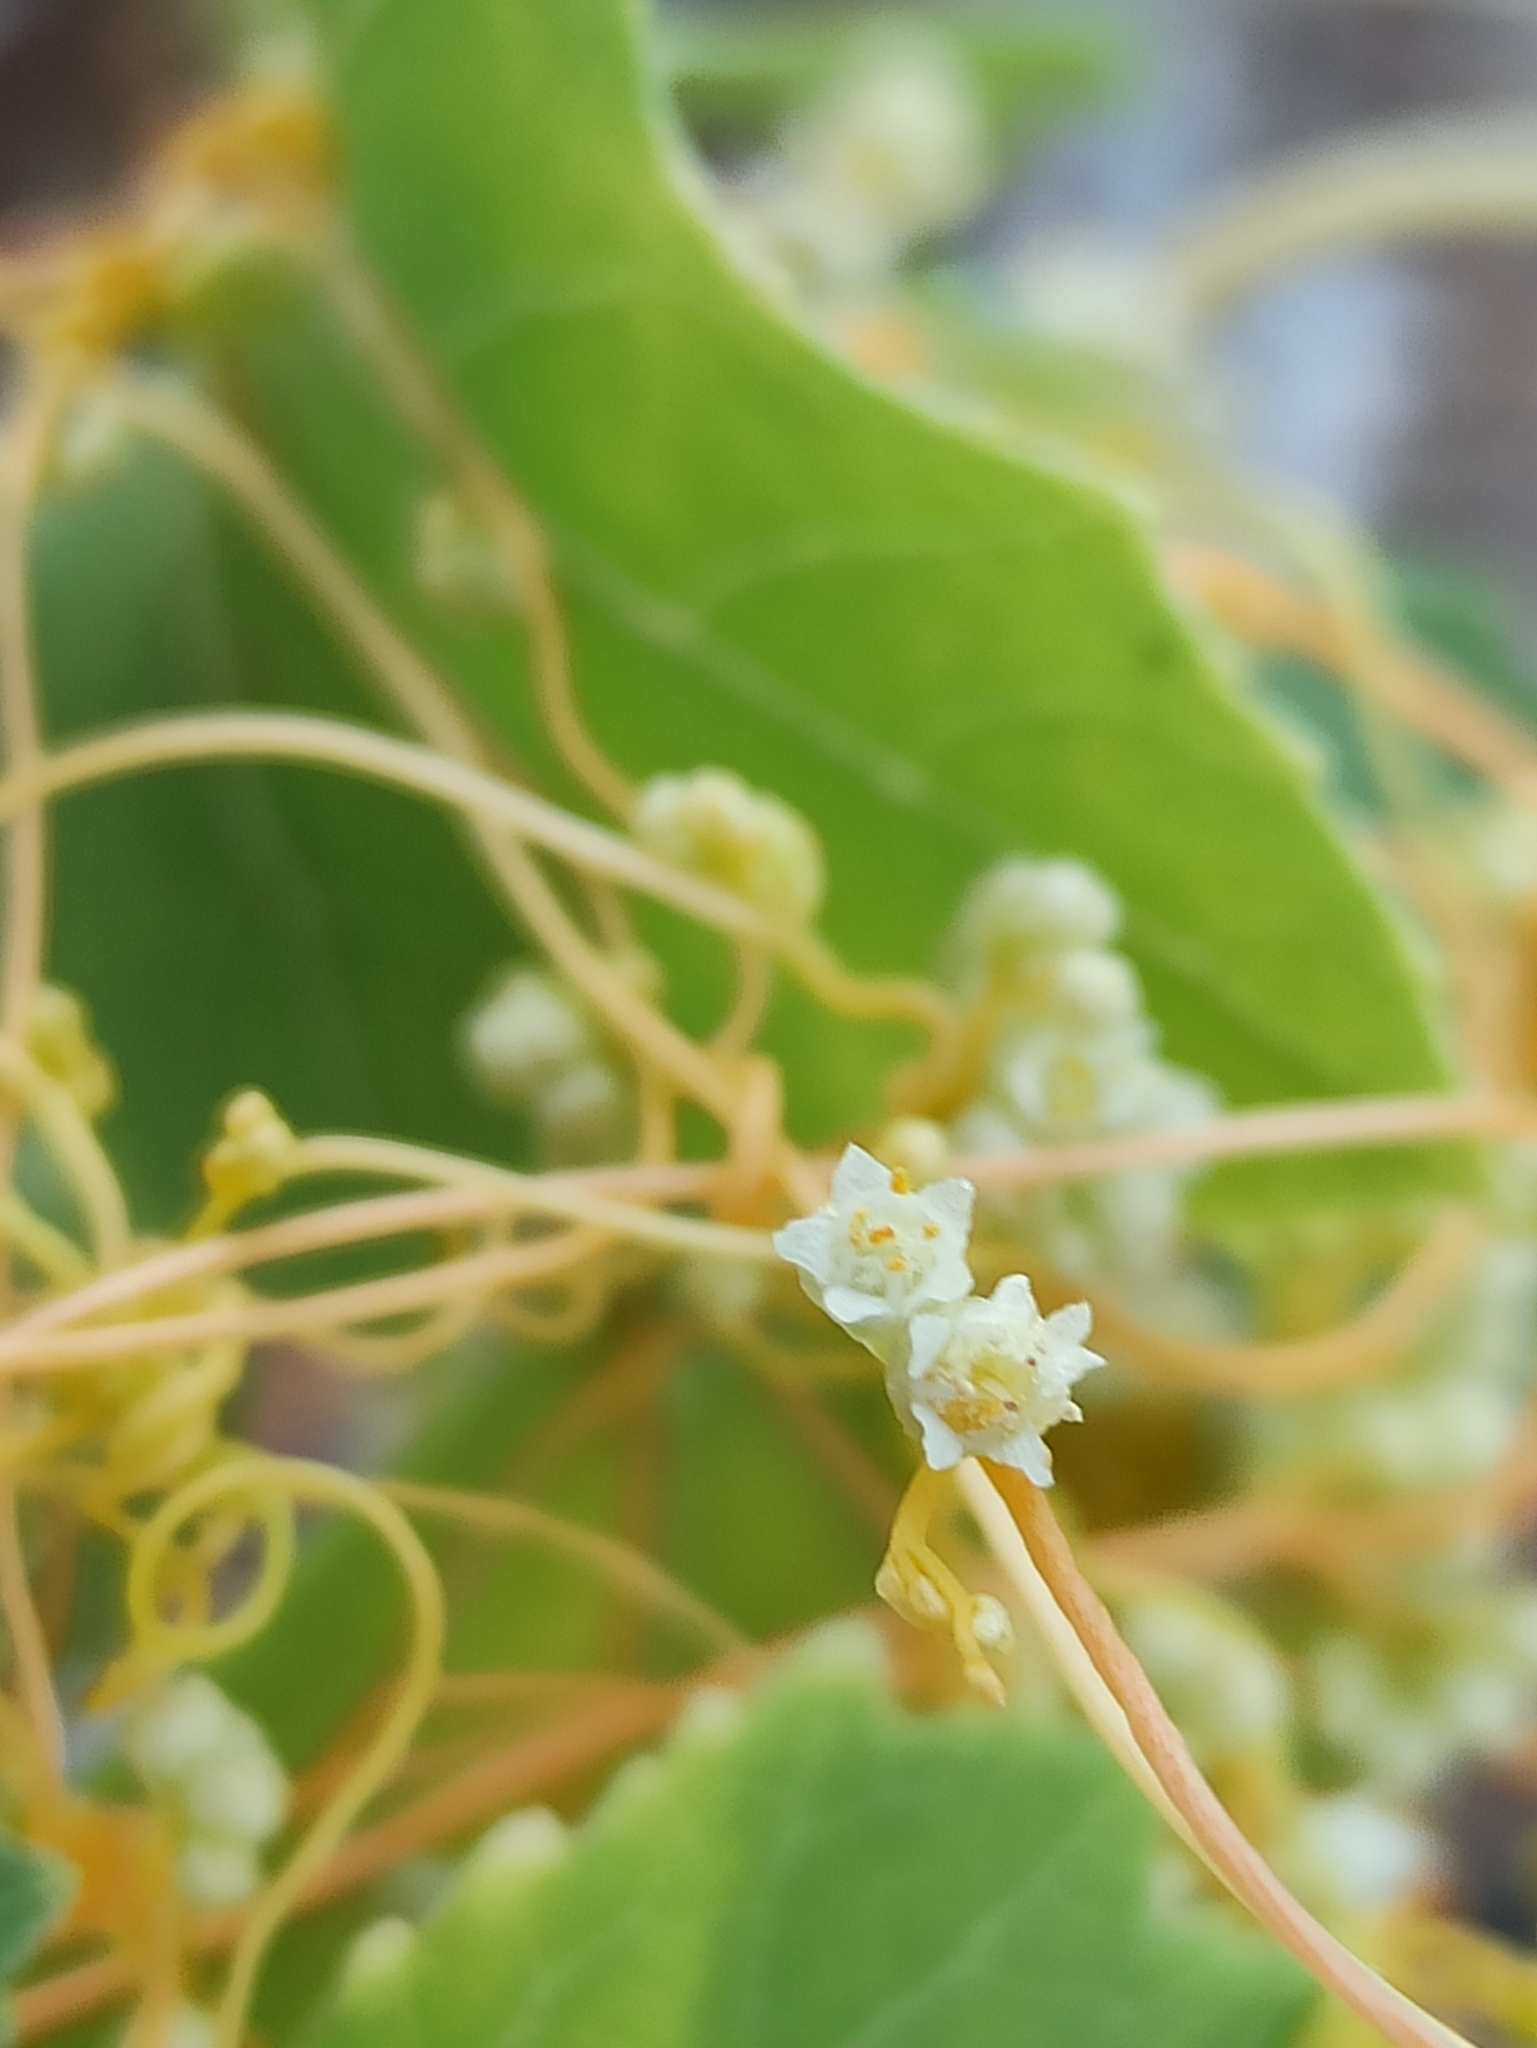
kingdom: Plantae
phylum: Tracheophyta
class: Magnoliopsida
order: Solanales
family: Convolvulaceae
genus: Cuscuta
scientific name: Cuscuta campestris
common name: Yellow dodder
